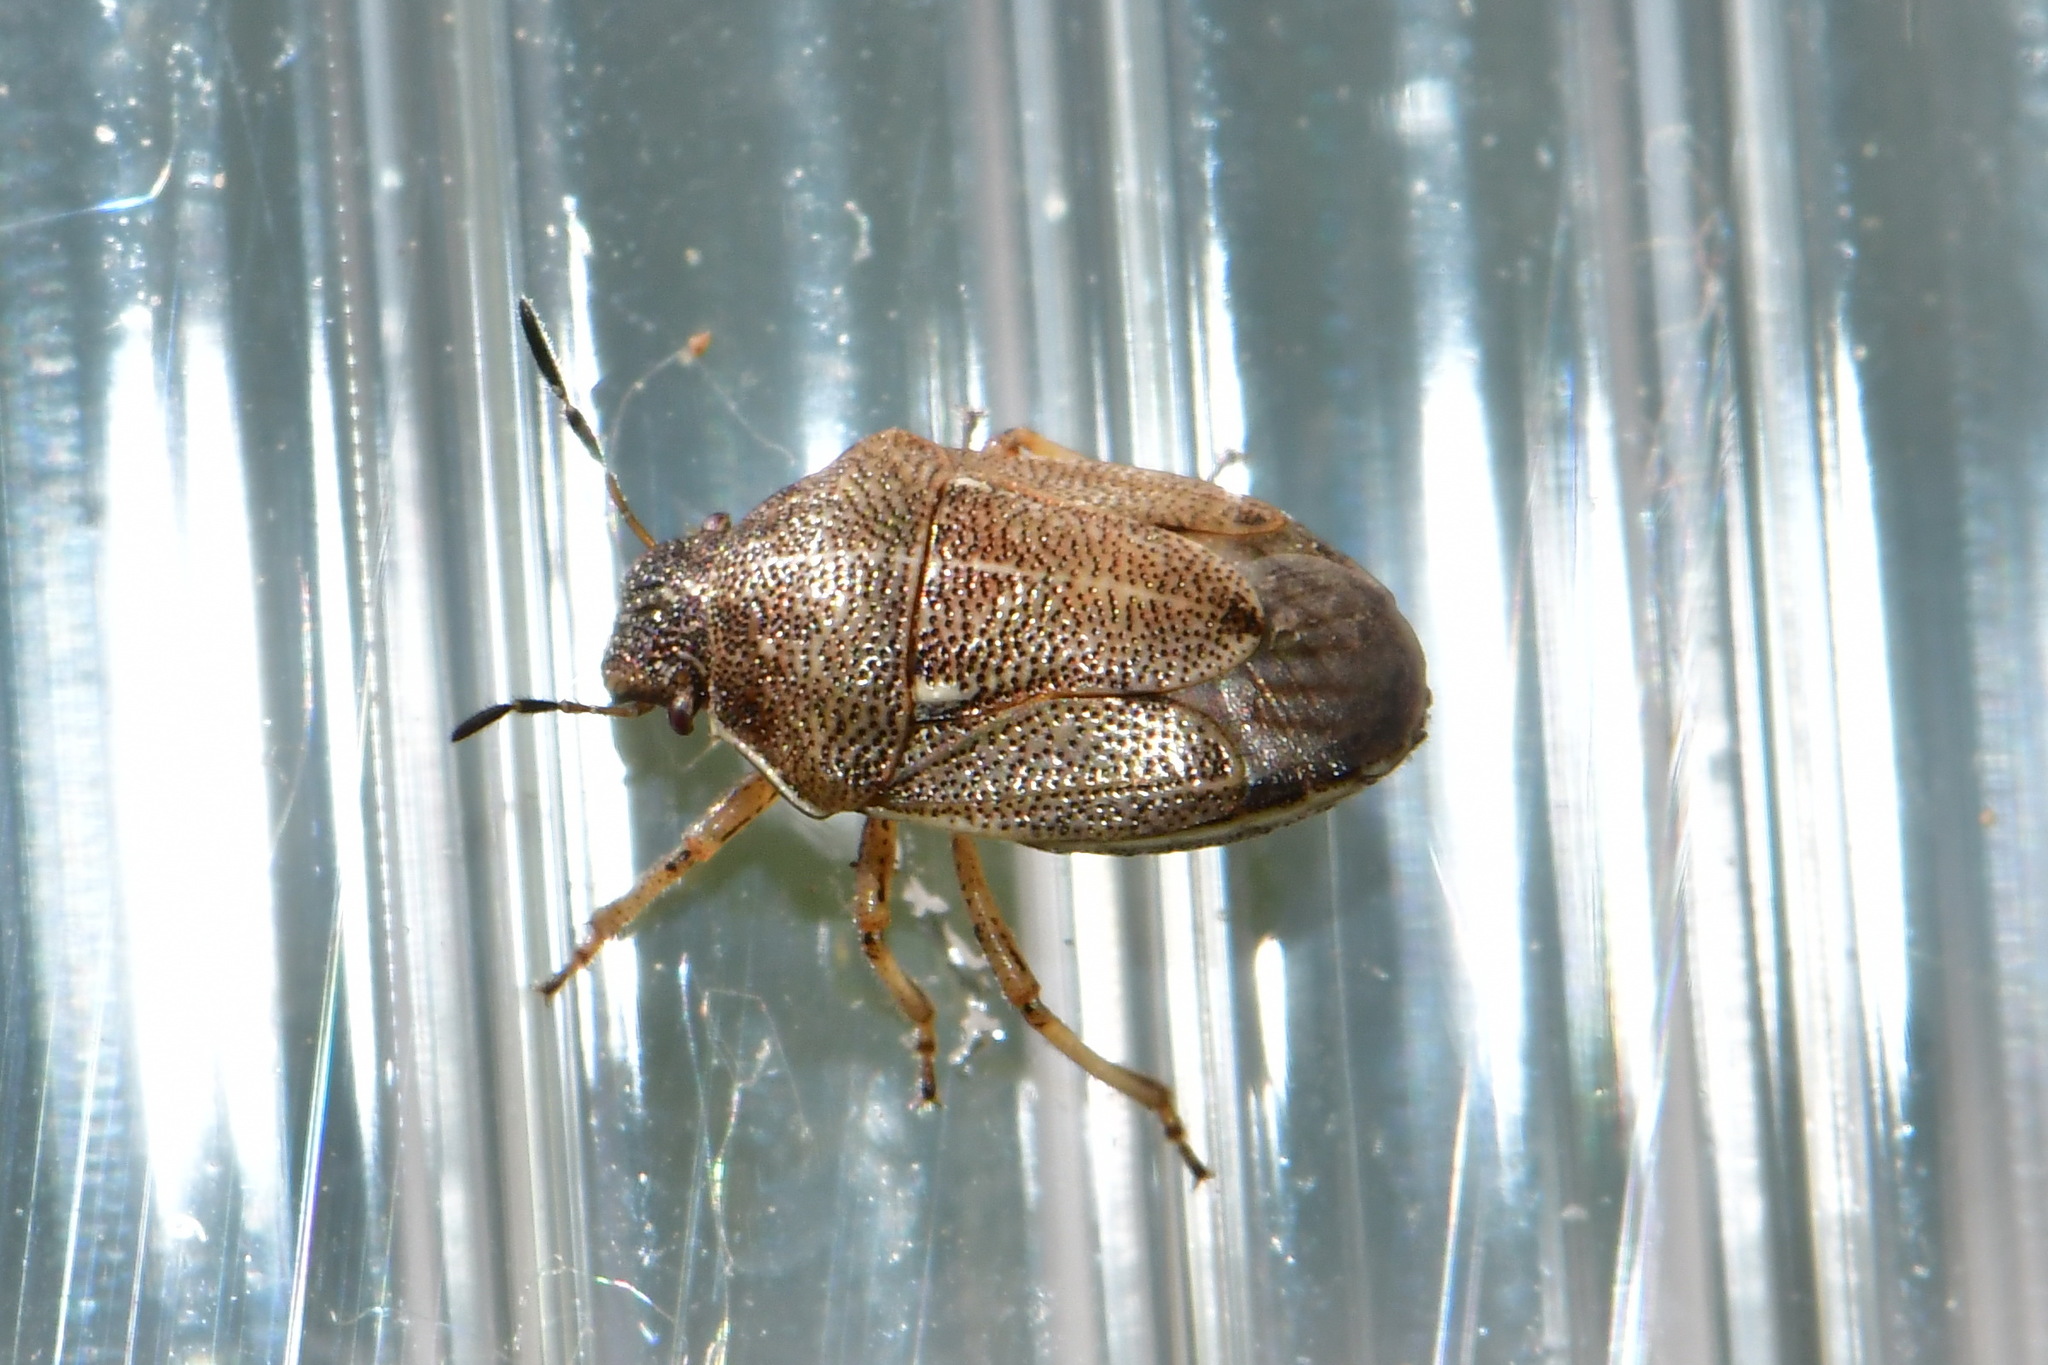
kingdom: Animalia
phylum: Arthropoda
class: Insecta
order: Hemiptera
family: Pentatomidae
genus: Neottiglossa
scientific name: Neottiglossa pusilla
